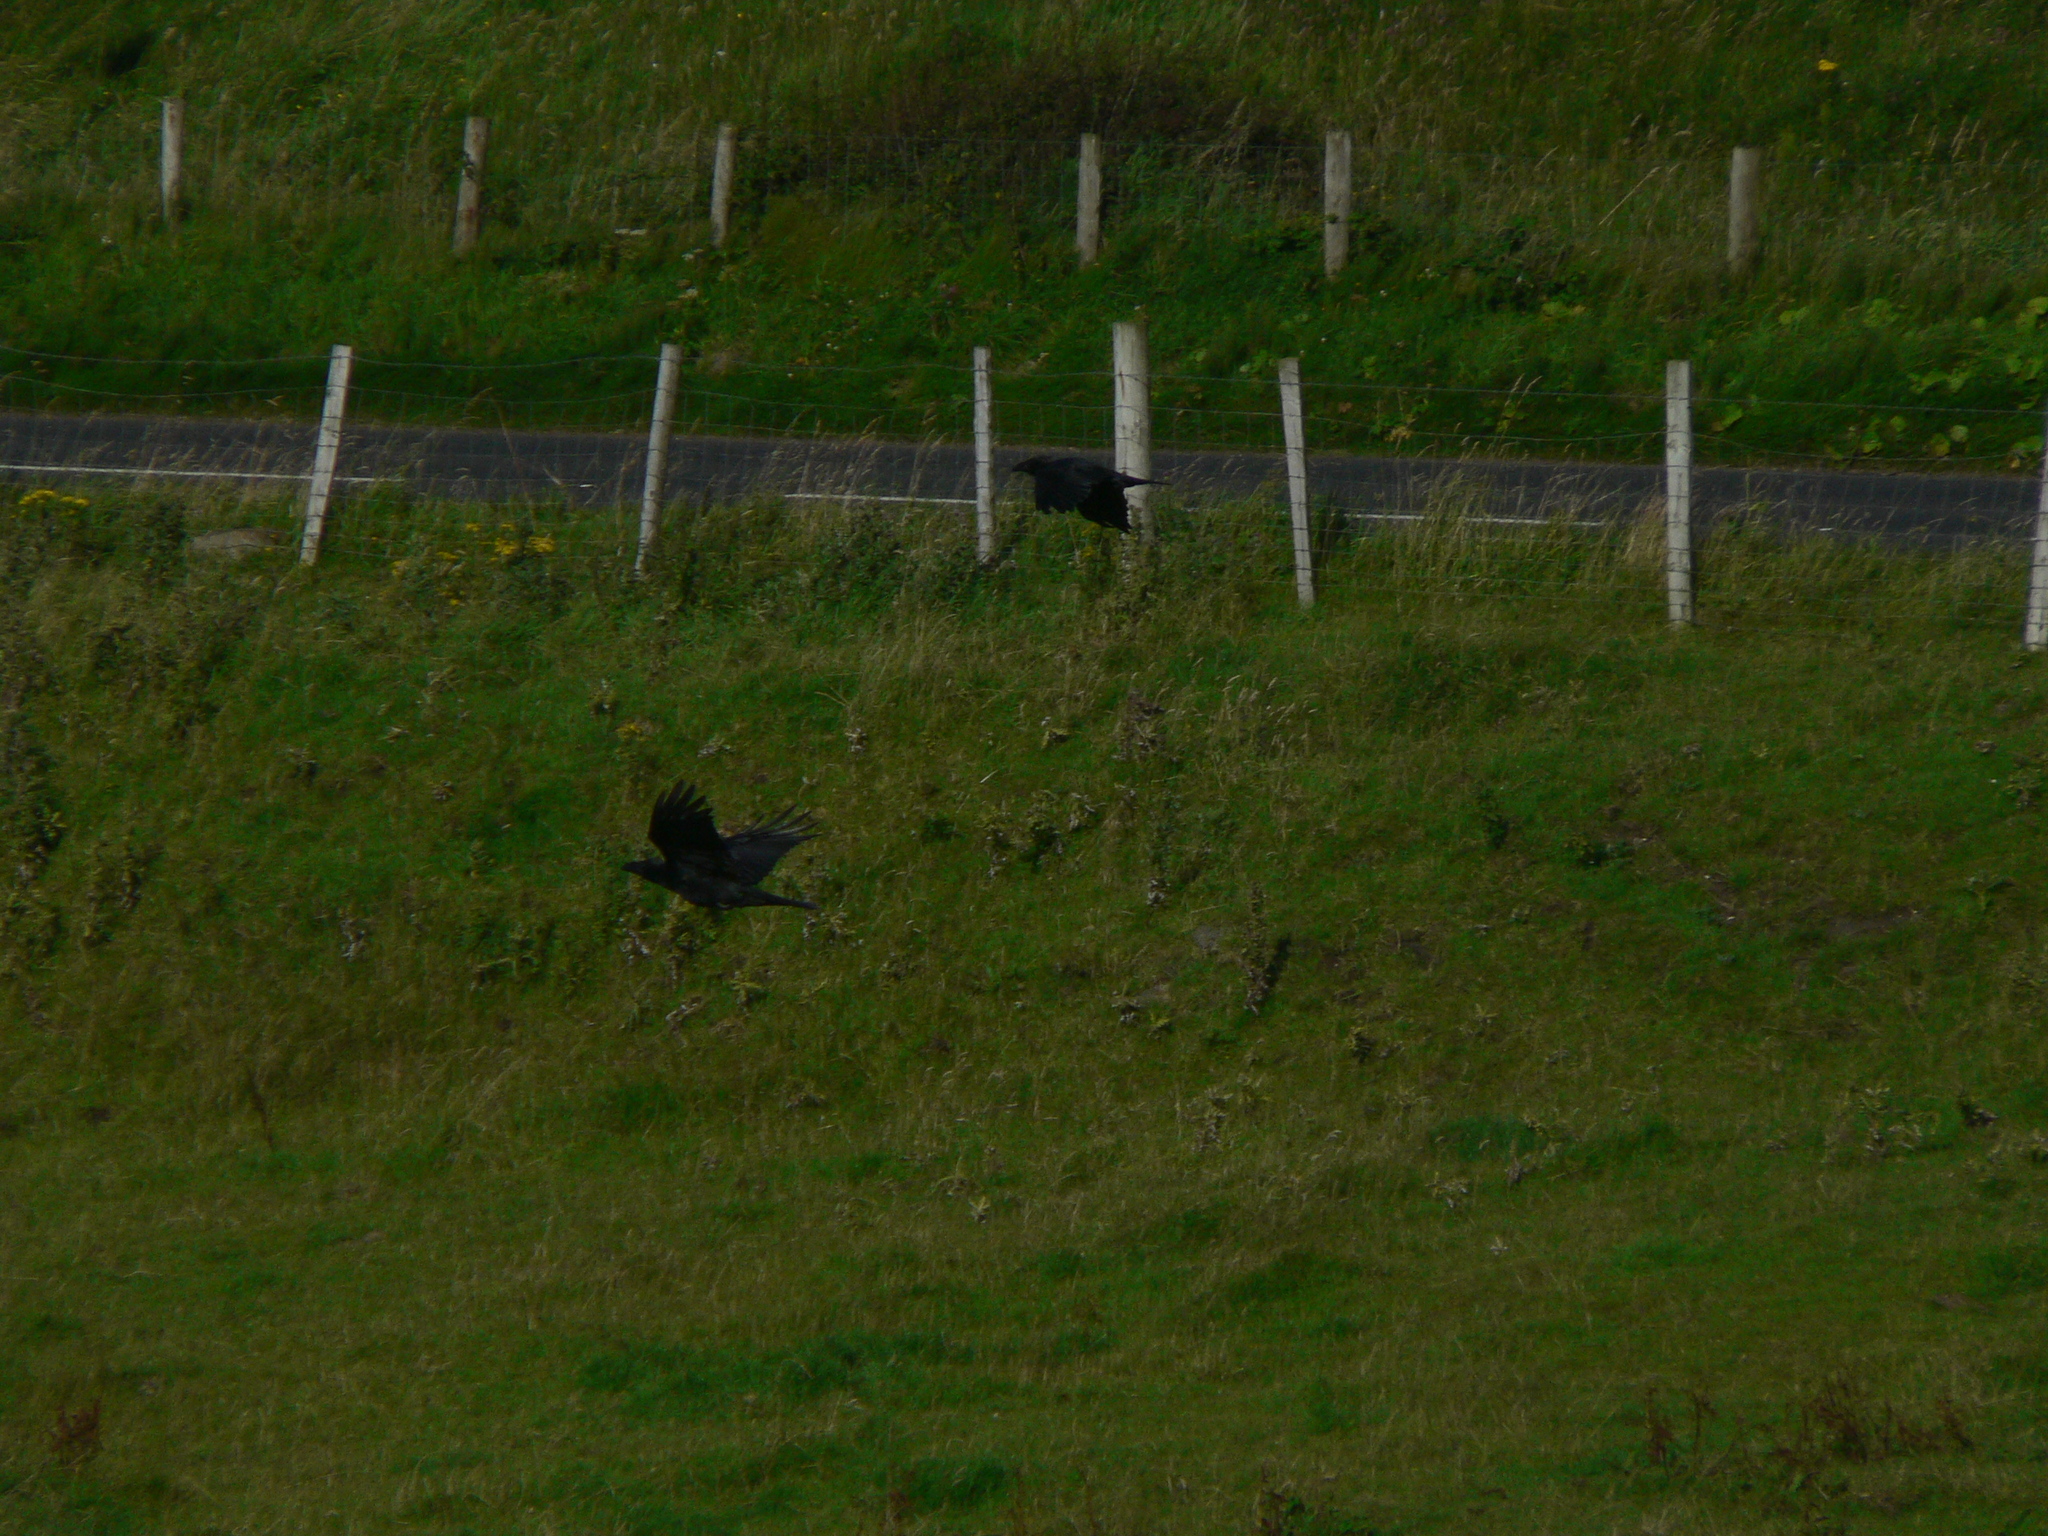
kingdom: Animalia
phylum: Chordata
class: Aves
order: Passeriformes
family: Corvidae
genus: Corvus
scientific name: Corvus corax
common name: Common raven
